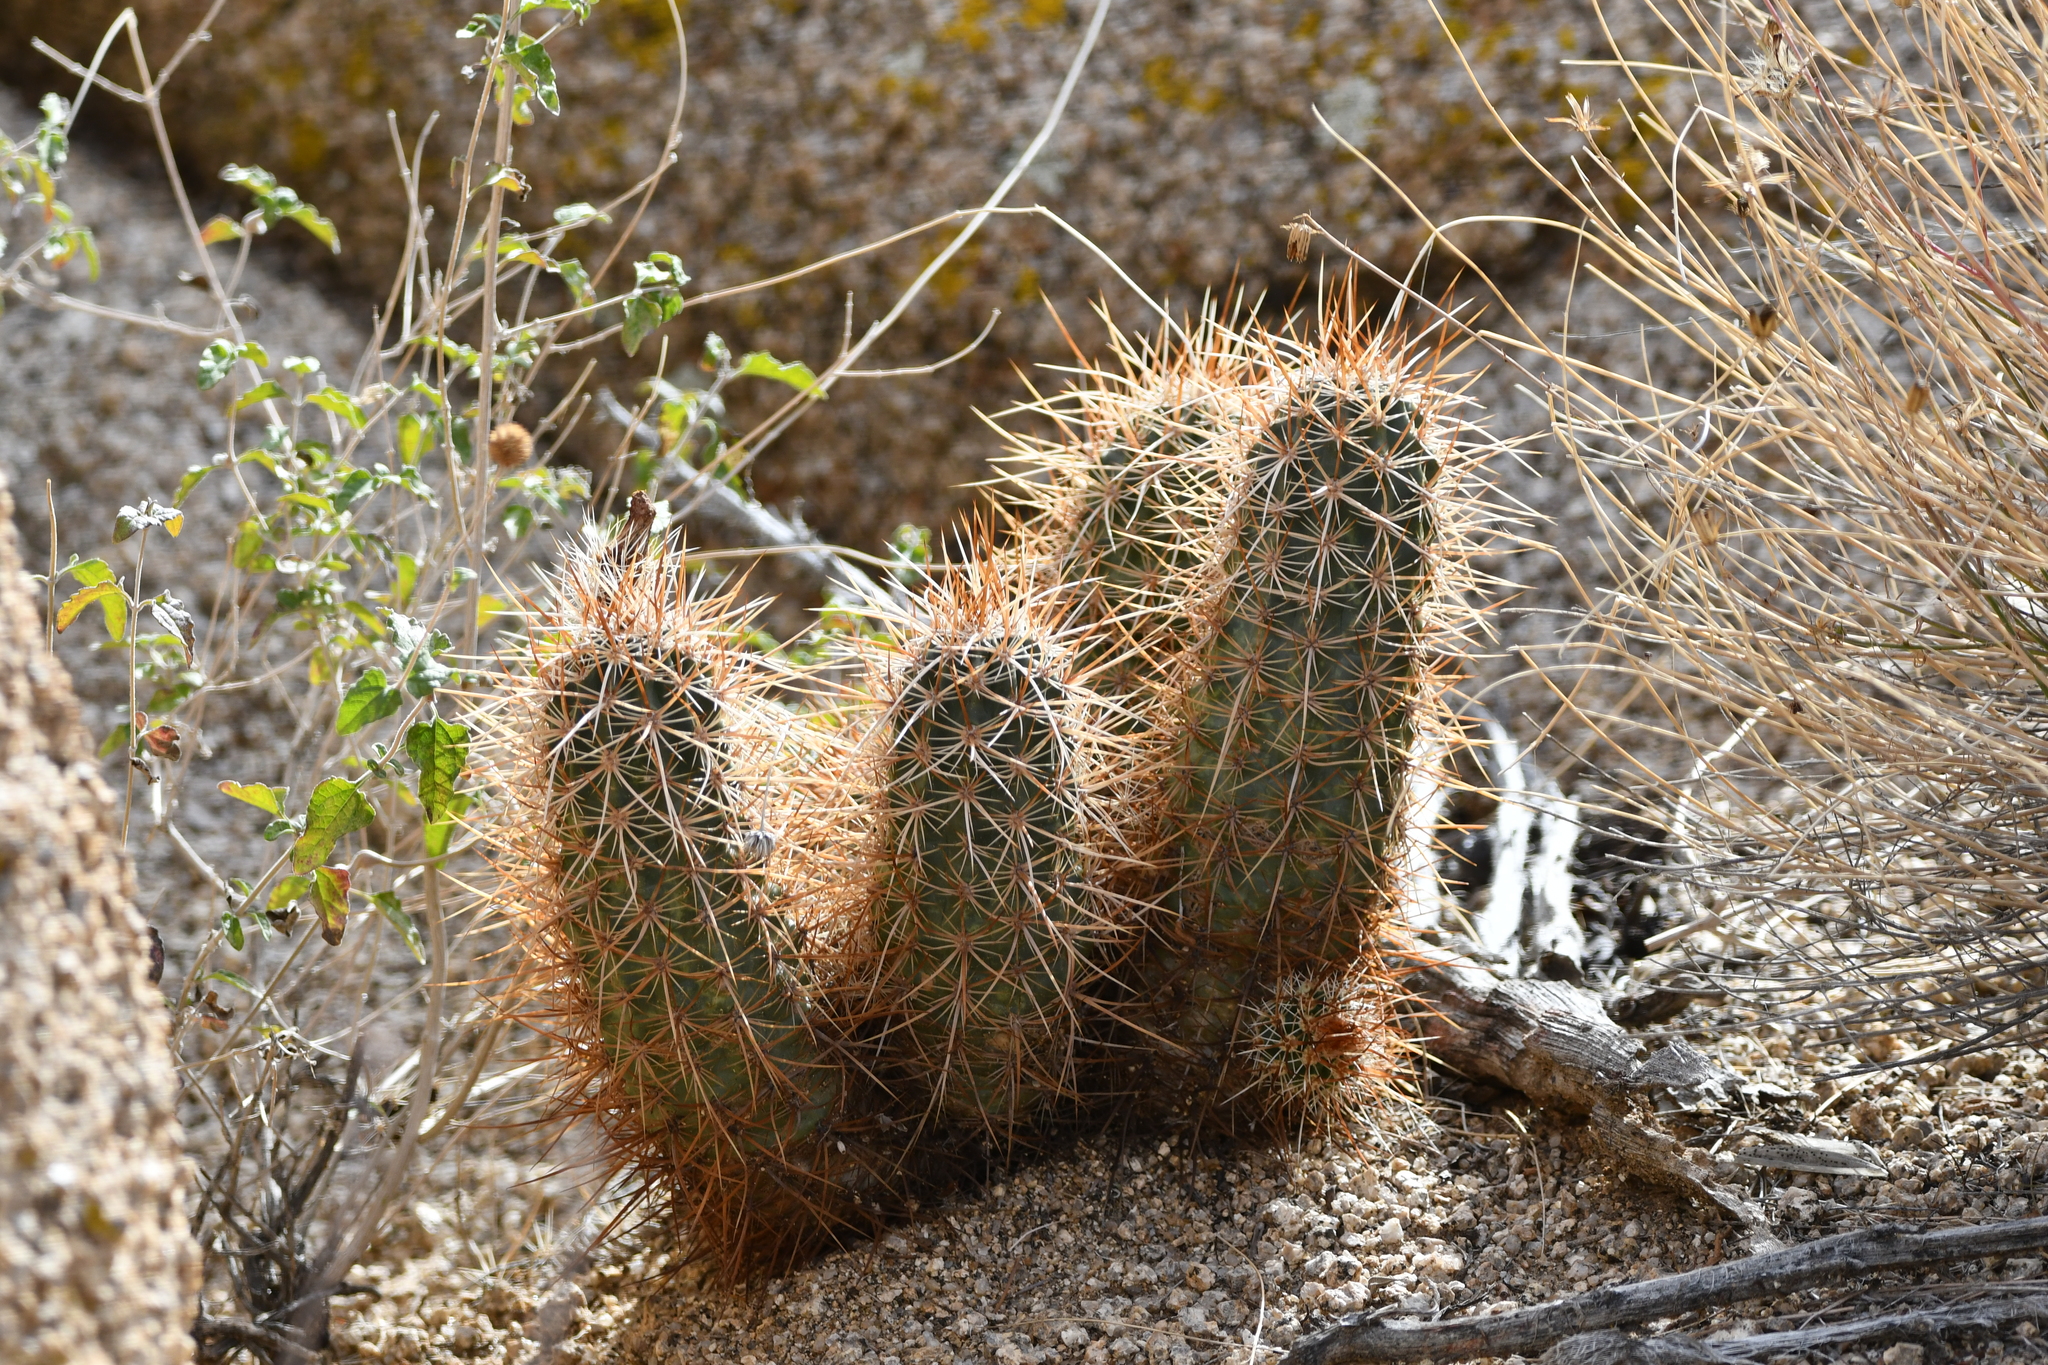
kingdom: Plantae
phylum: Tracheophyta
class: Magnoliopsida
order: Caryophyllales
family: Cactaceae
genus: Echinocereus
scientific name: Echinocereus engelmannii
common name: Engelmann's hedgehog cactus
